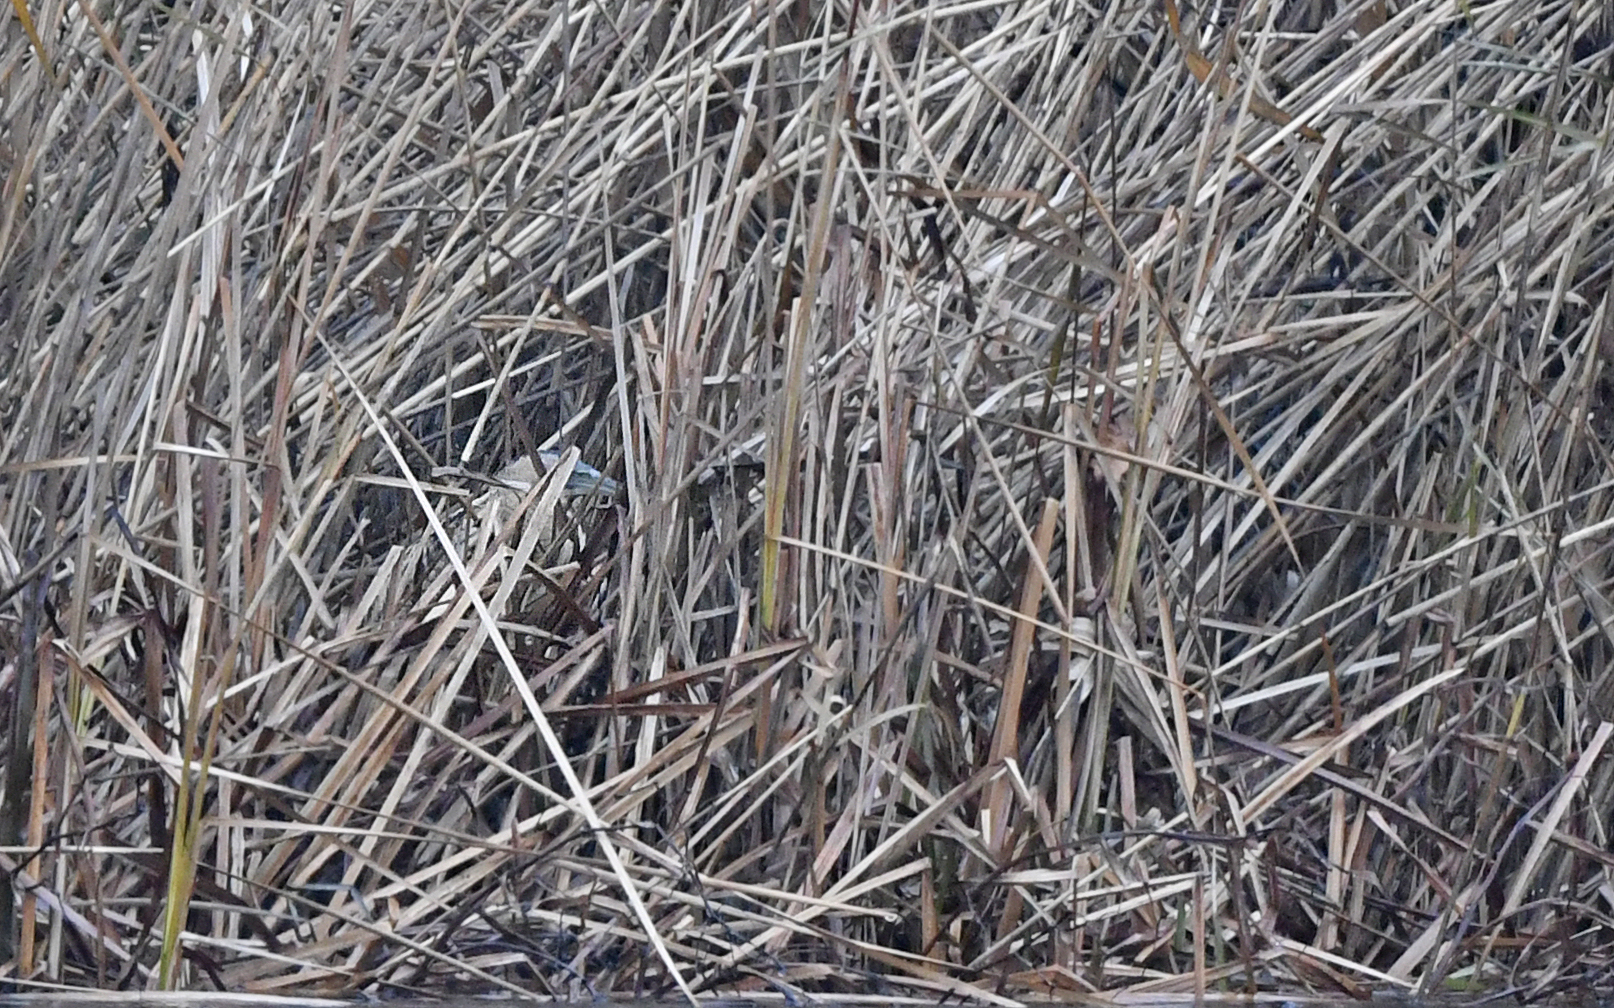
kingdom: Animalia
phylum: Chordata
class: Aves
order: Pelecaniformes
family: Ardeidae
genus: Botaurus
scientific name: Botaurus stellaris
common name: Eurasian bittern
